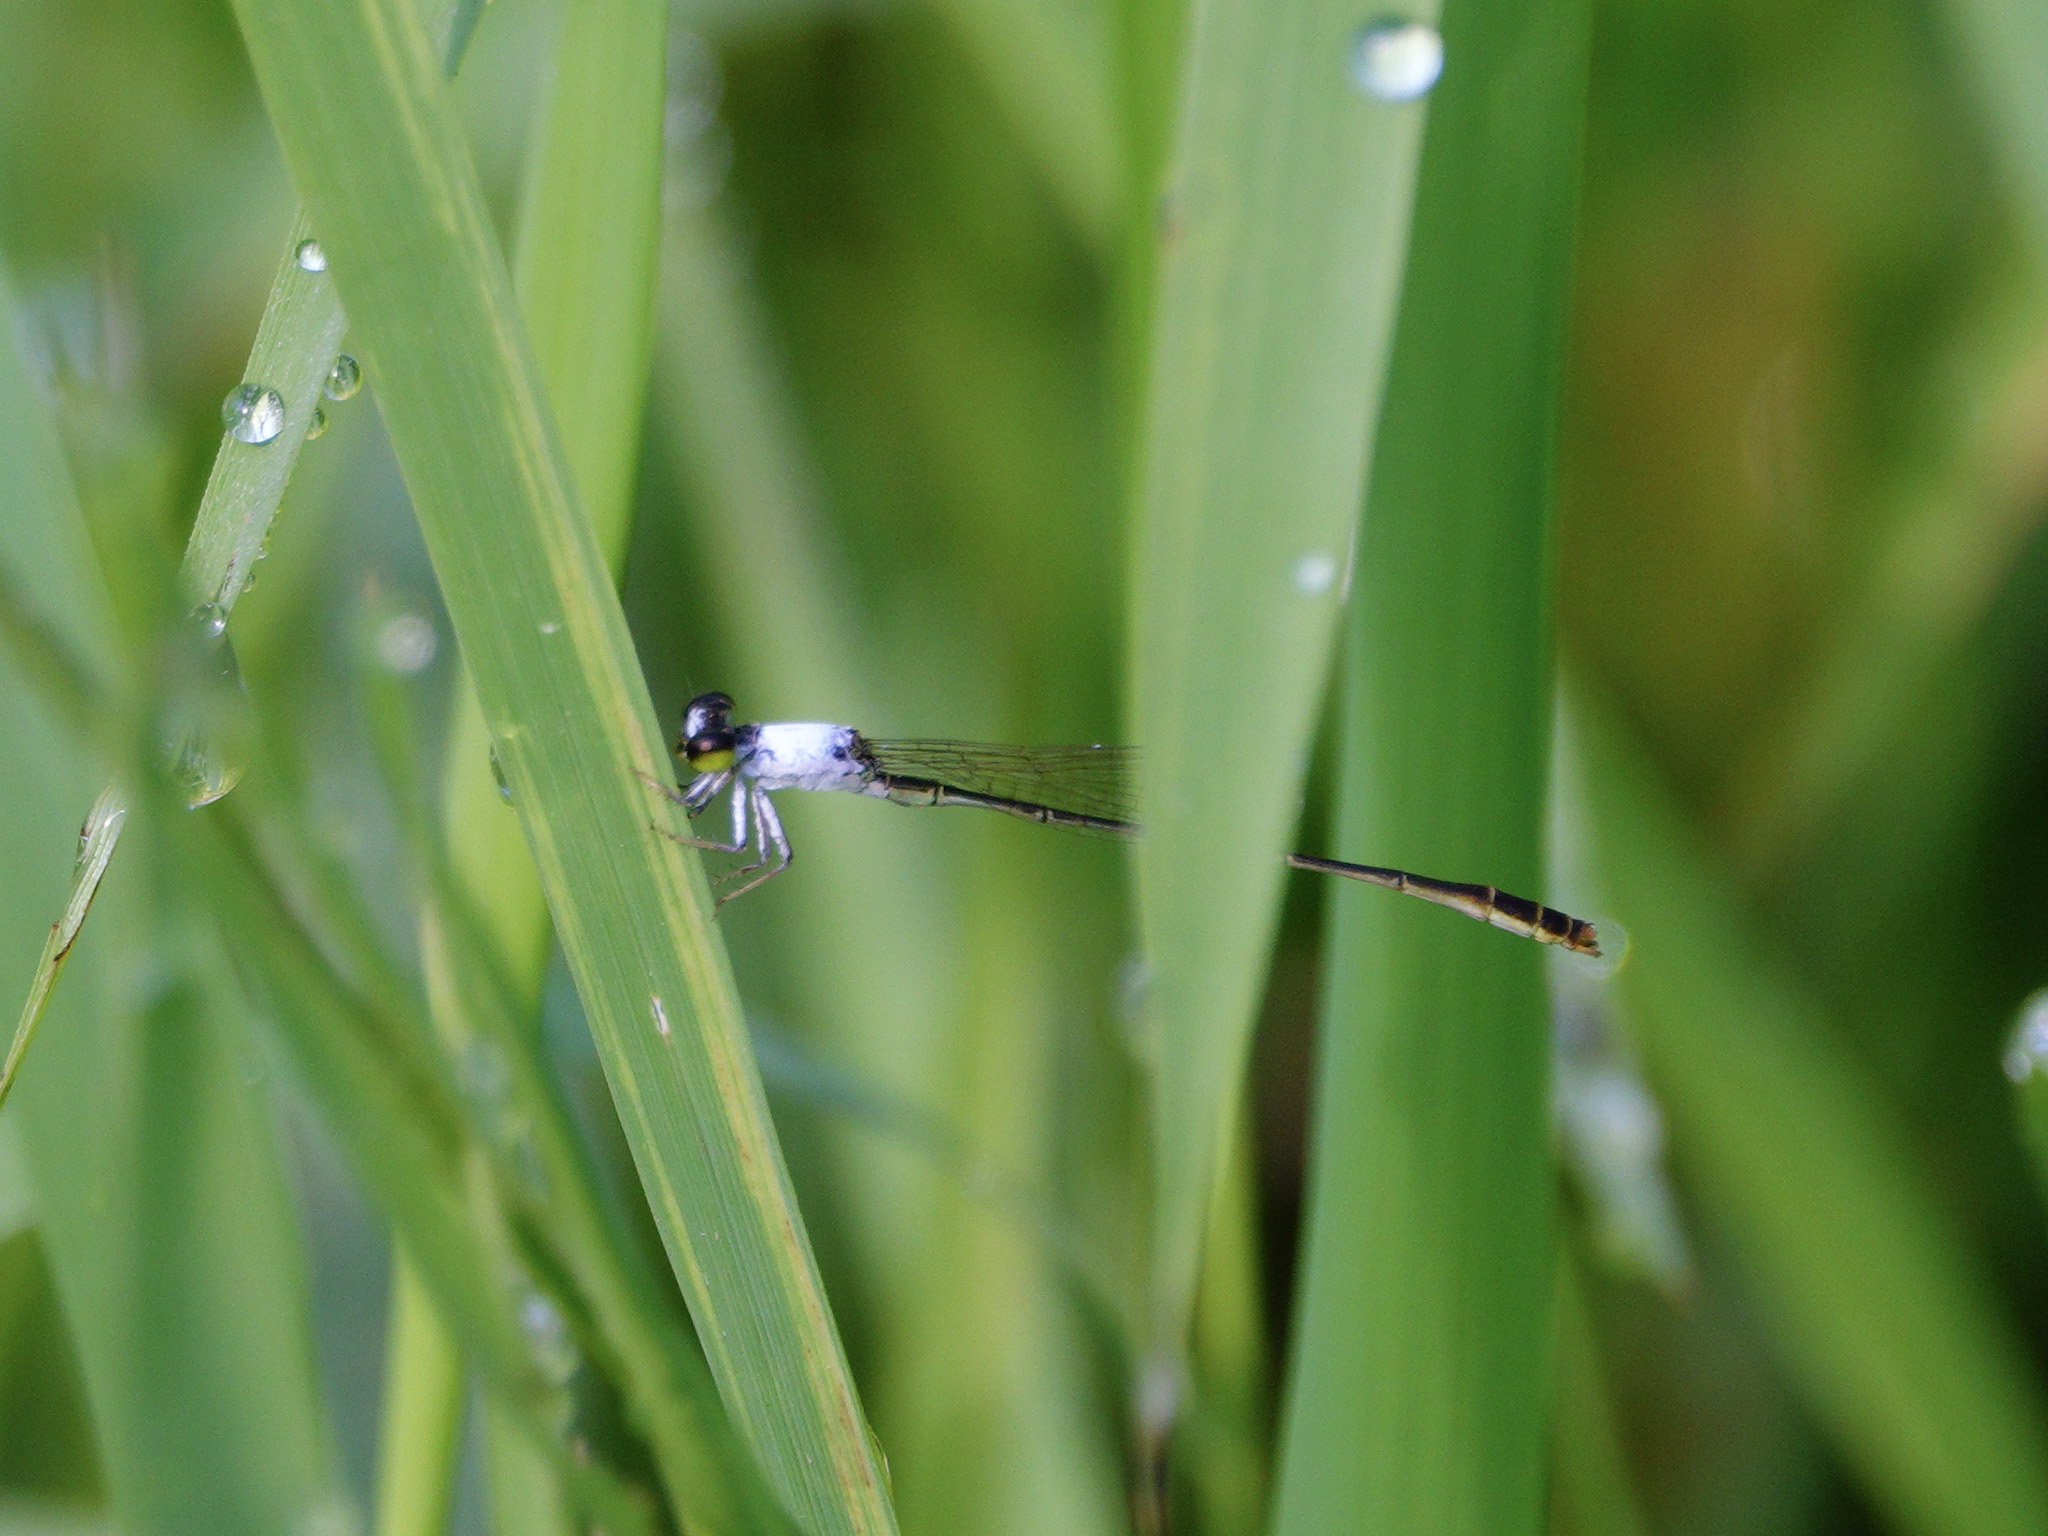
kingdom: Animalia
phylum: Arthropoda
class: Insecta
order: Odonata
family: Coenagrionidae
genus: Agriocnemis
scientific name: Agriocnemis femina
